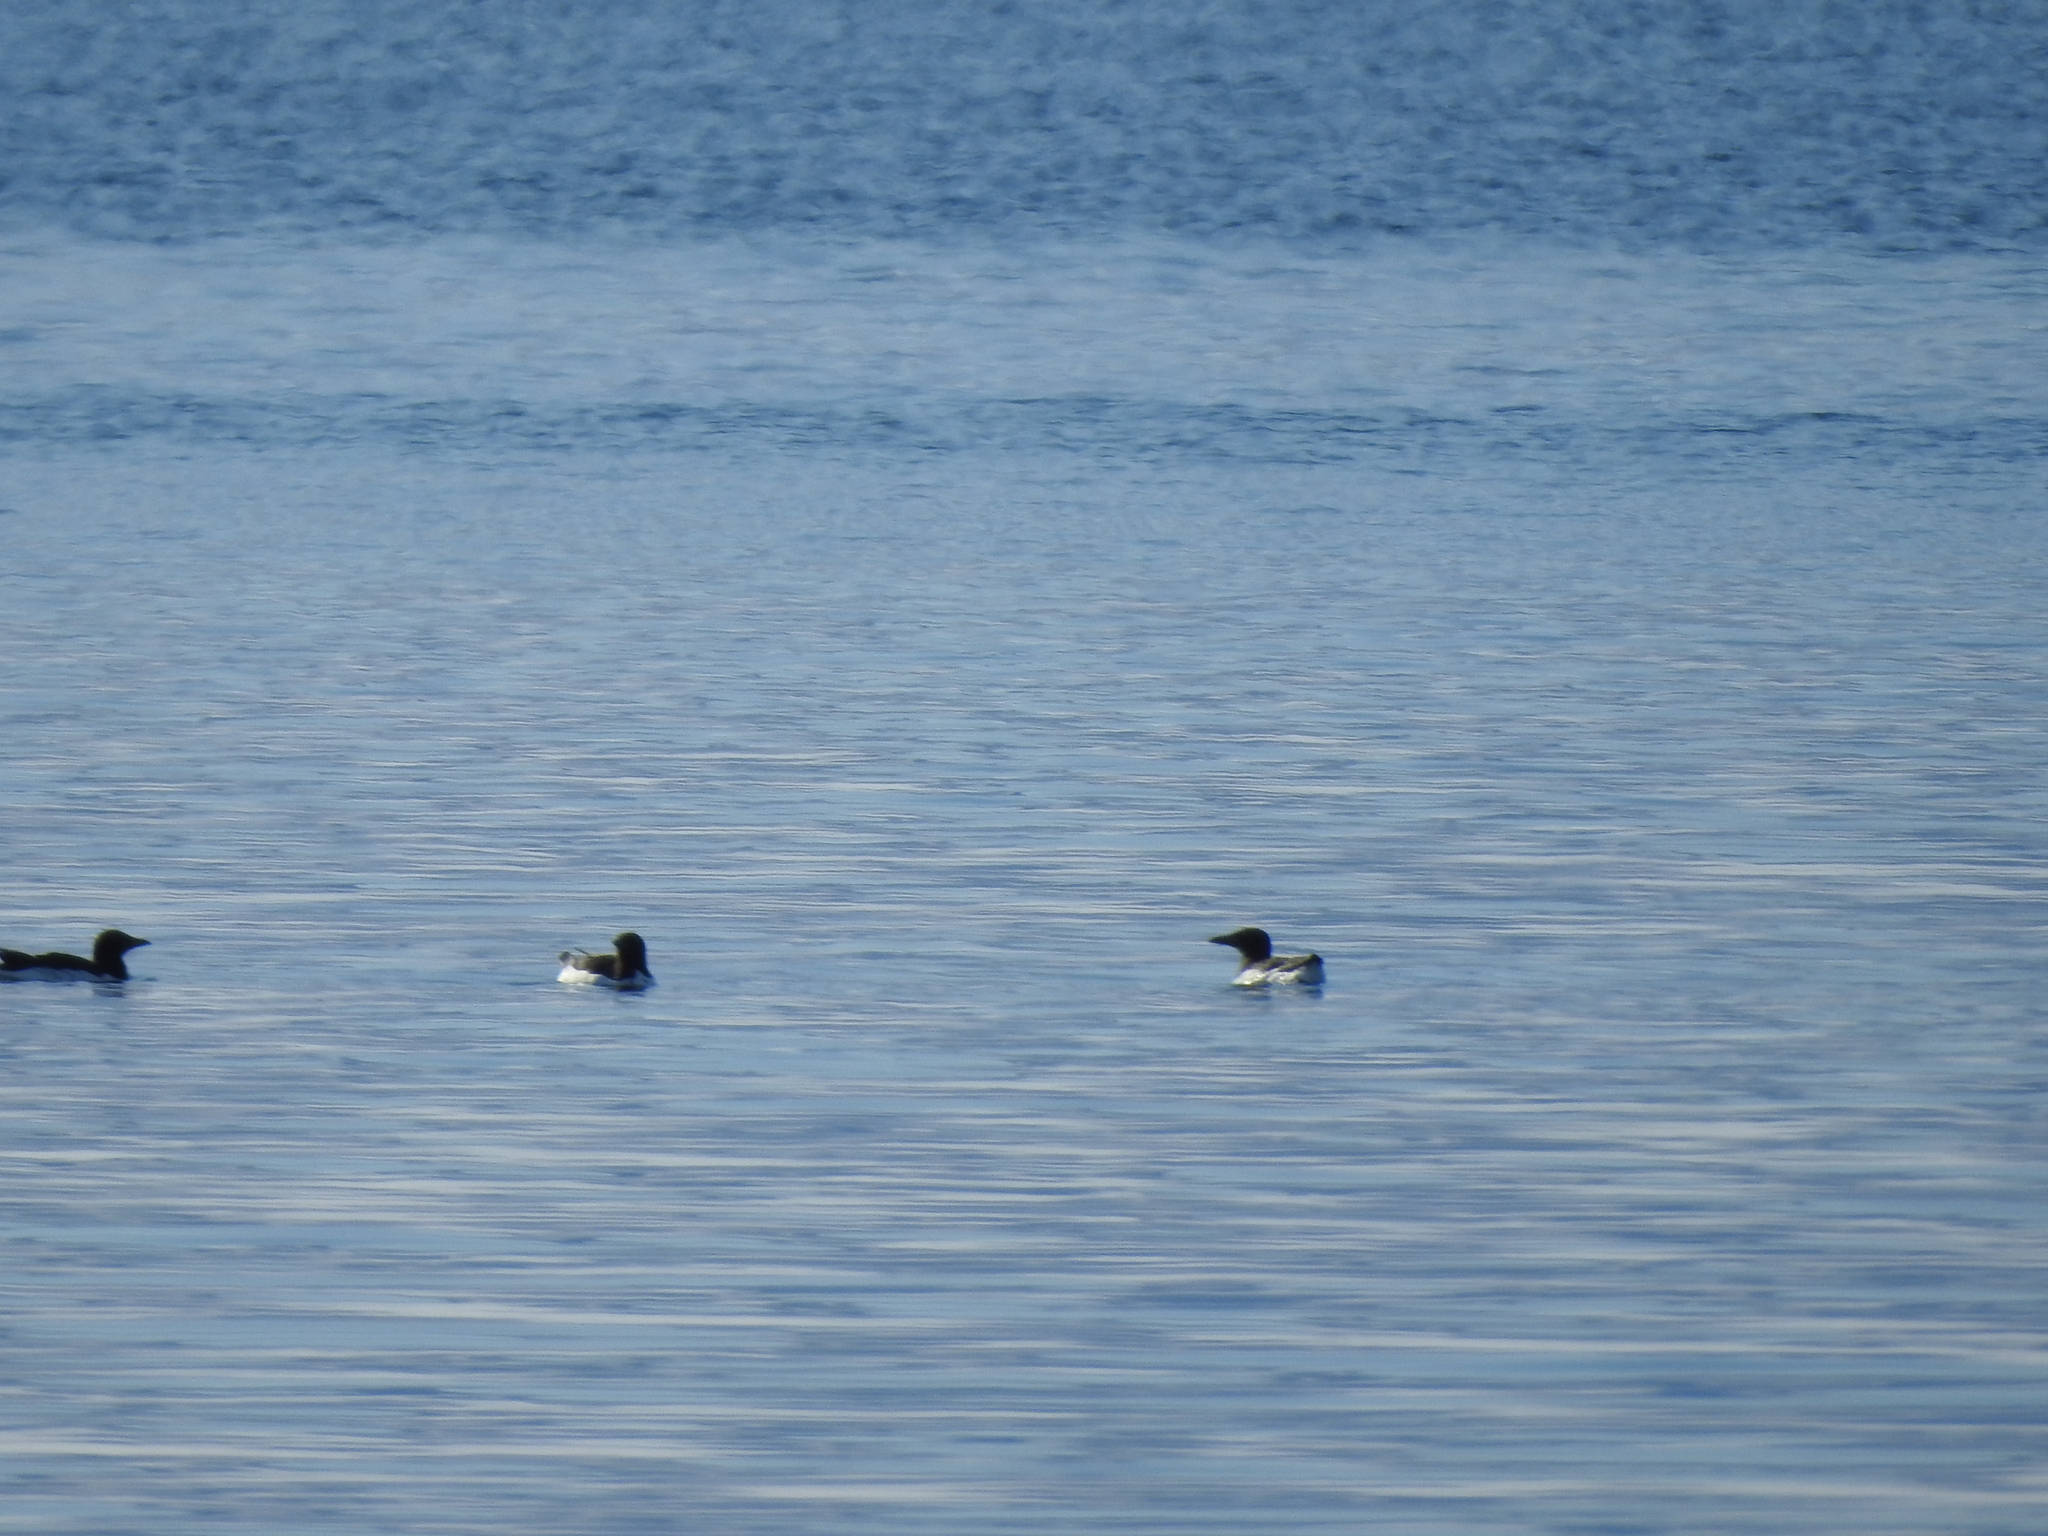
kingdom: Animalia
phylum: Chordata
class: Aves
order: Charadriiformes
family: Alcidae
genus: Uria
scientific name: Uria lomvia
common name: Thick-billed murre
